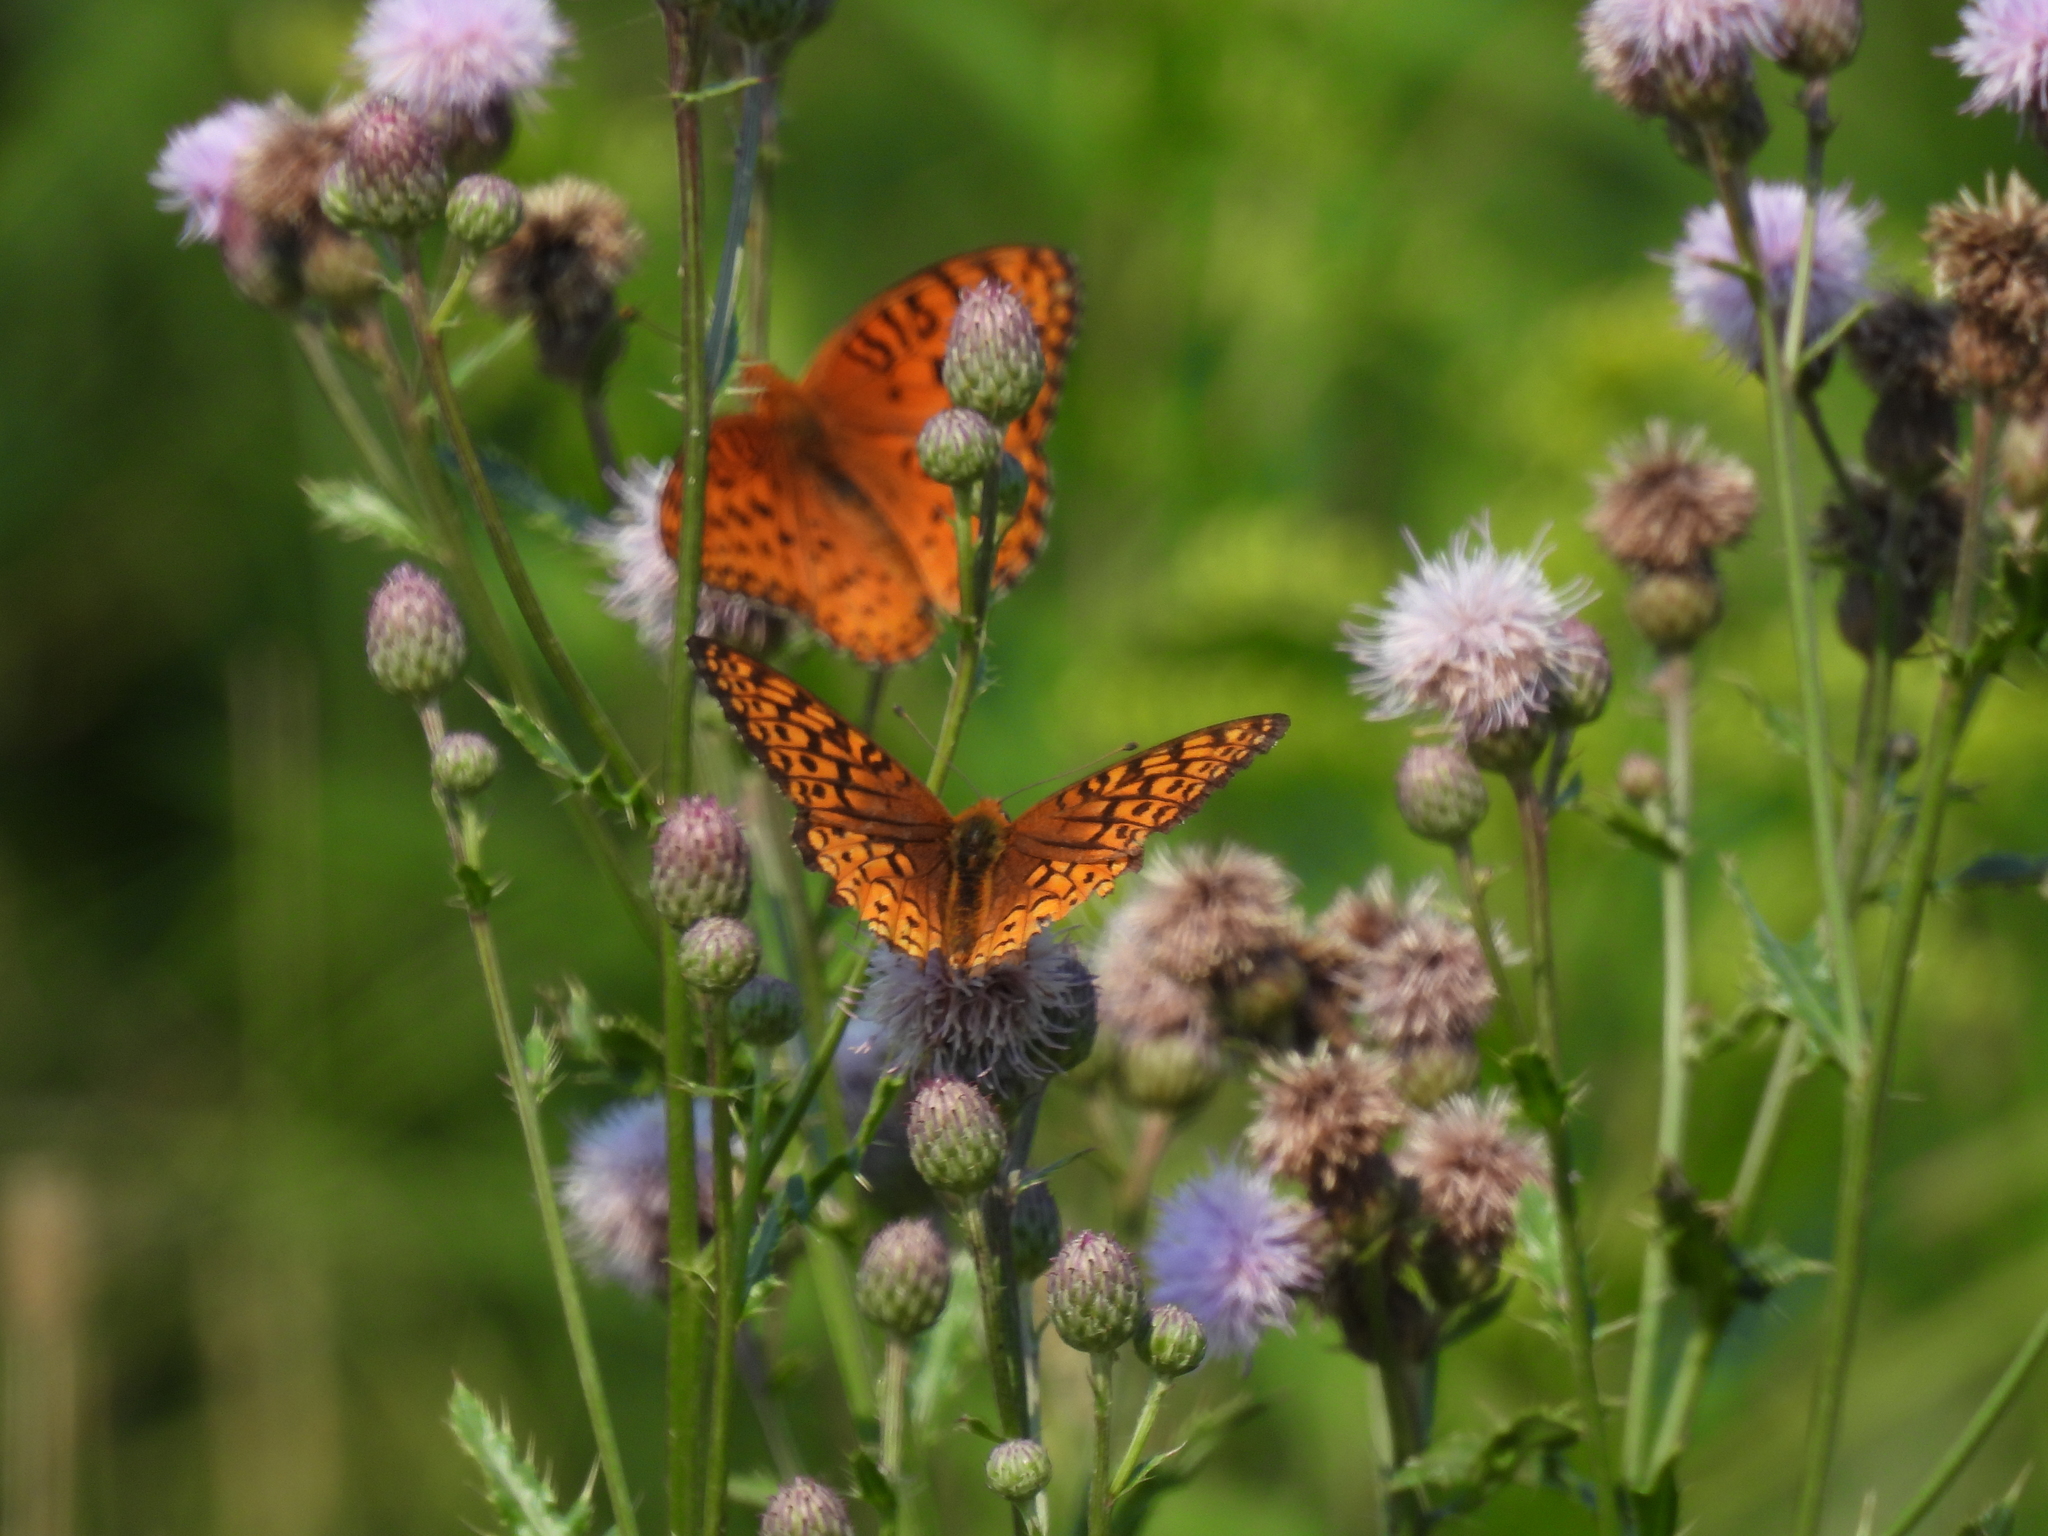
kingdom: Animalia
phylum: Arthropoda
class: Insecta
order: Lepidoptera
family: Nymphalidae
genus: Speyeria
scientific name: Speyeria aphrodite
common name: Aphrodite friitllary
